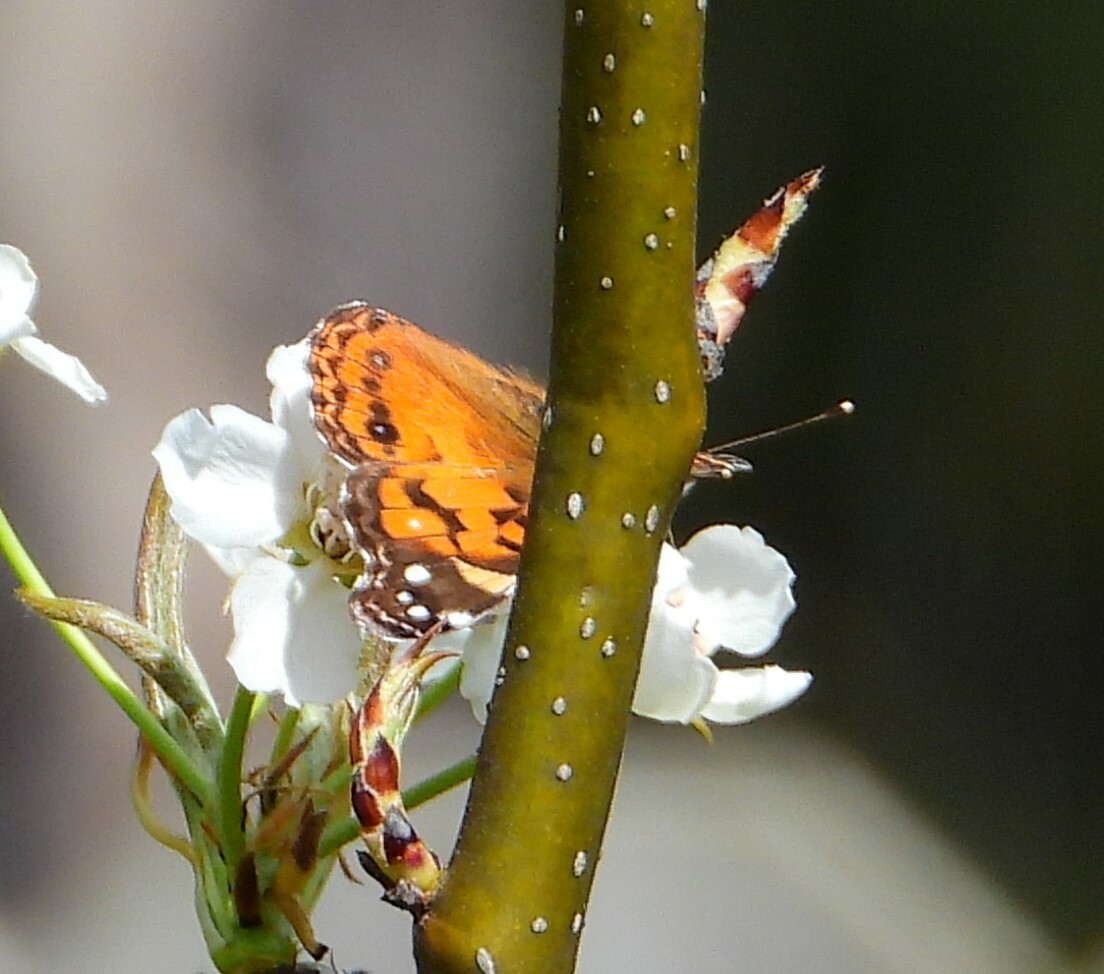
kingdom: Animalia
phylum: Arthropoda
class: Insecta
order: Lepidoptera
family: Nymphalidae
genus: Vanessa
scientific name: Vanessa virginiensis
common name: American lady
